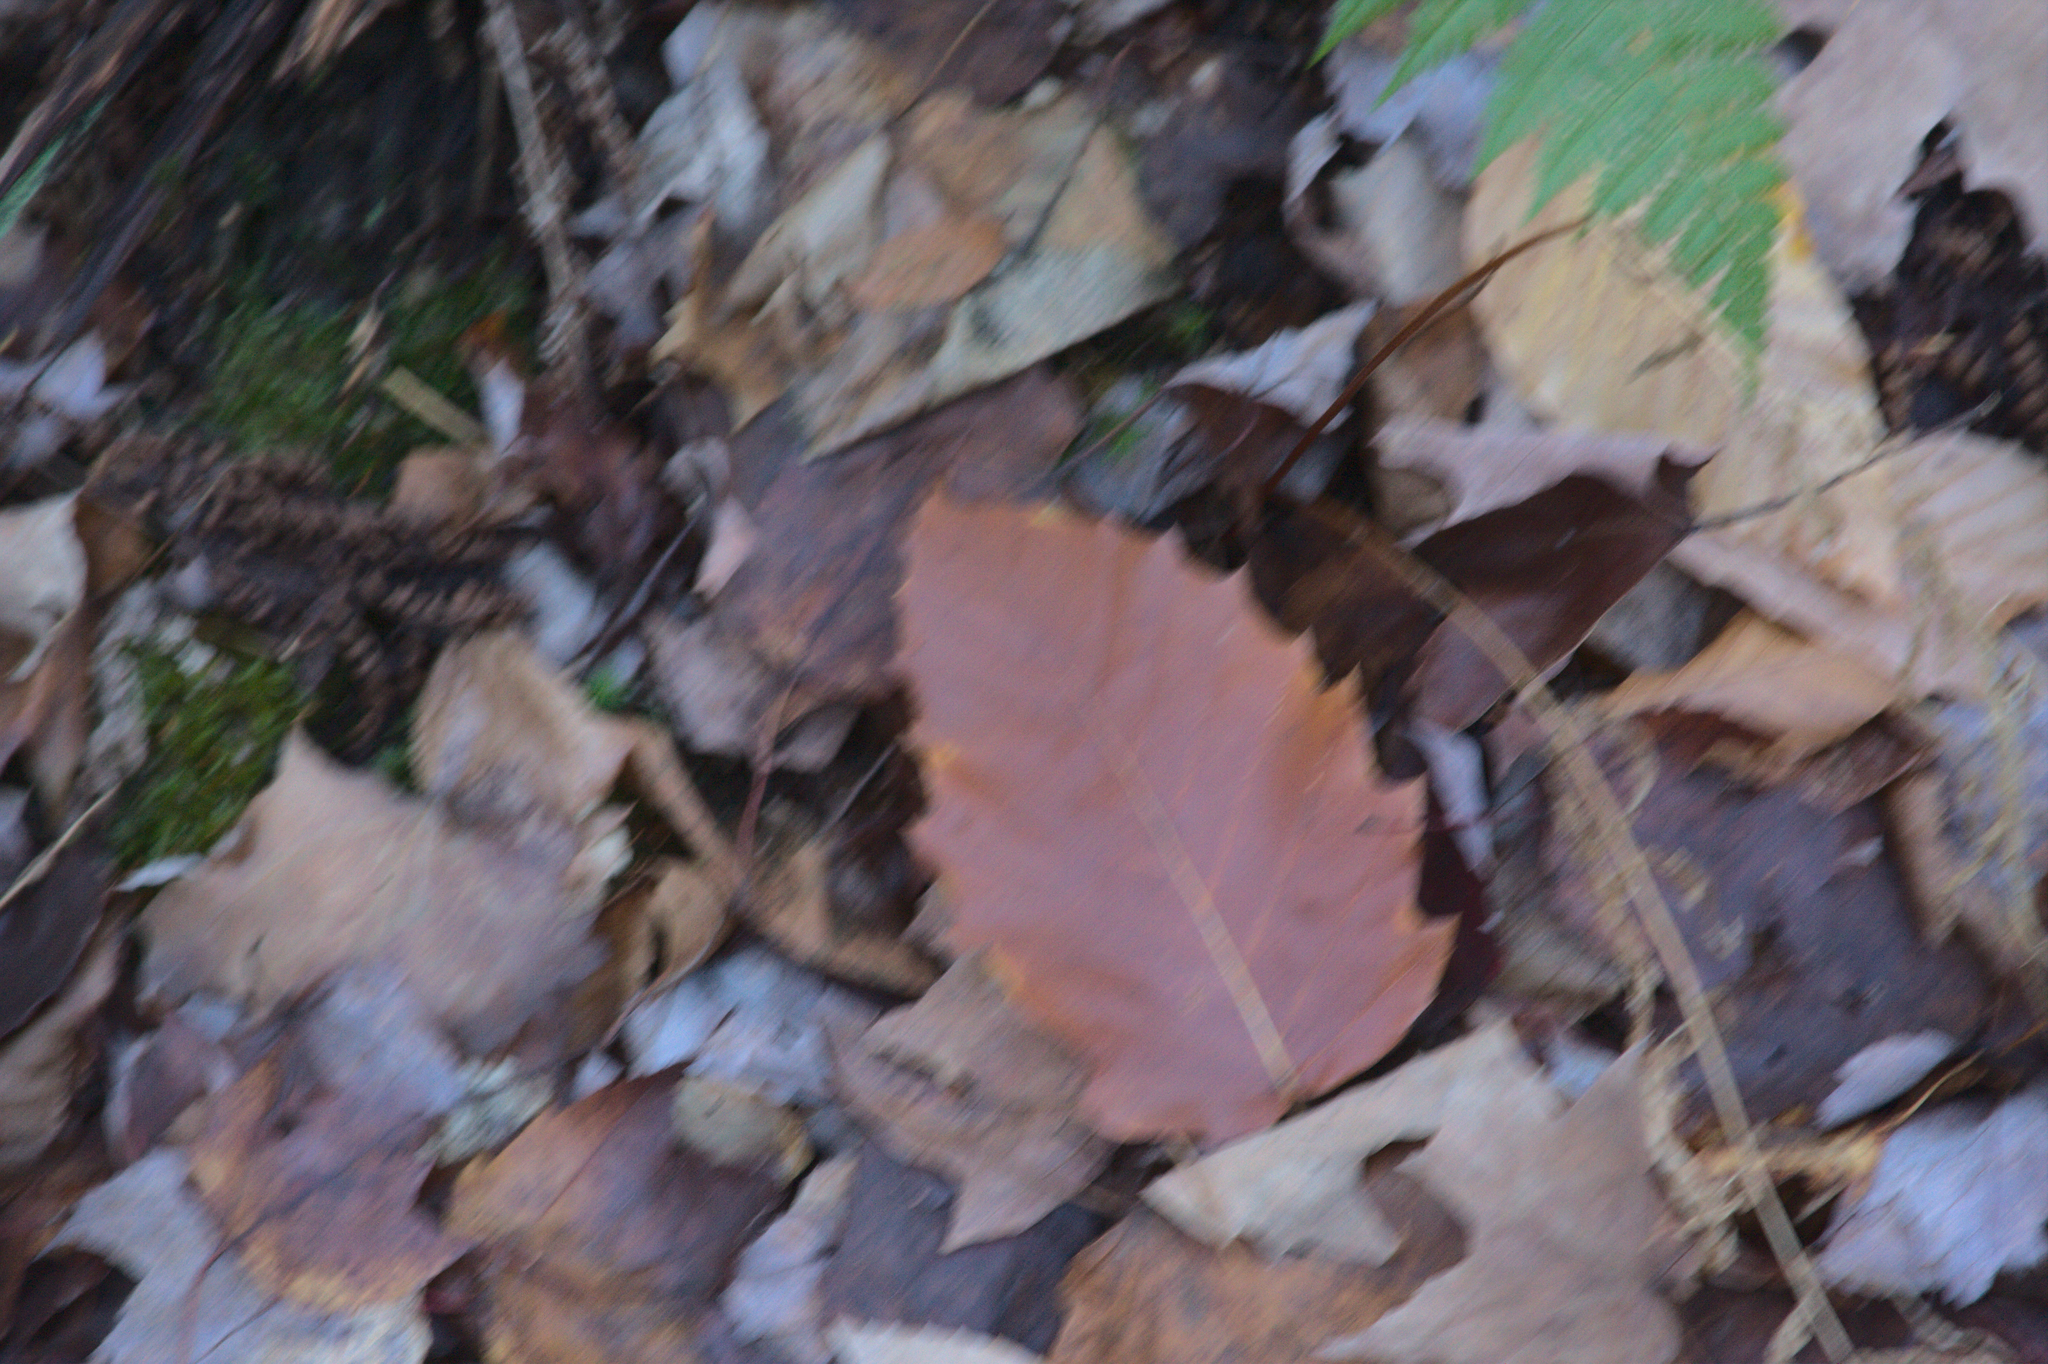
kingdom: Plantae
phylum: Tracheophyta
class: Magnoliopsida
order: Fagales
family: Fagaceae
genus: Fagus
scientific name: Fagus grandifolia
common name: American beech
